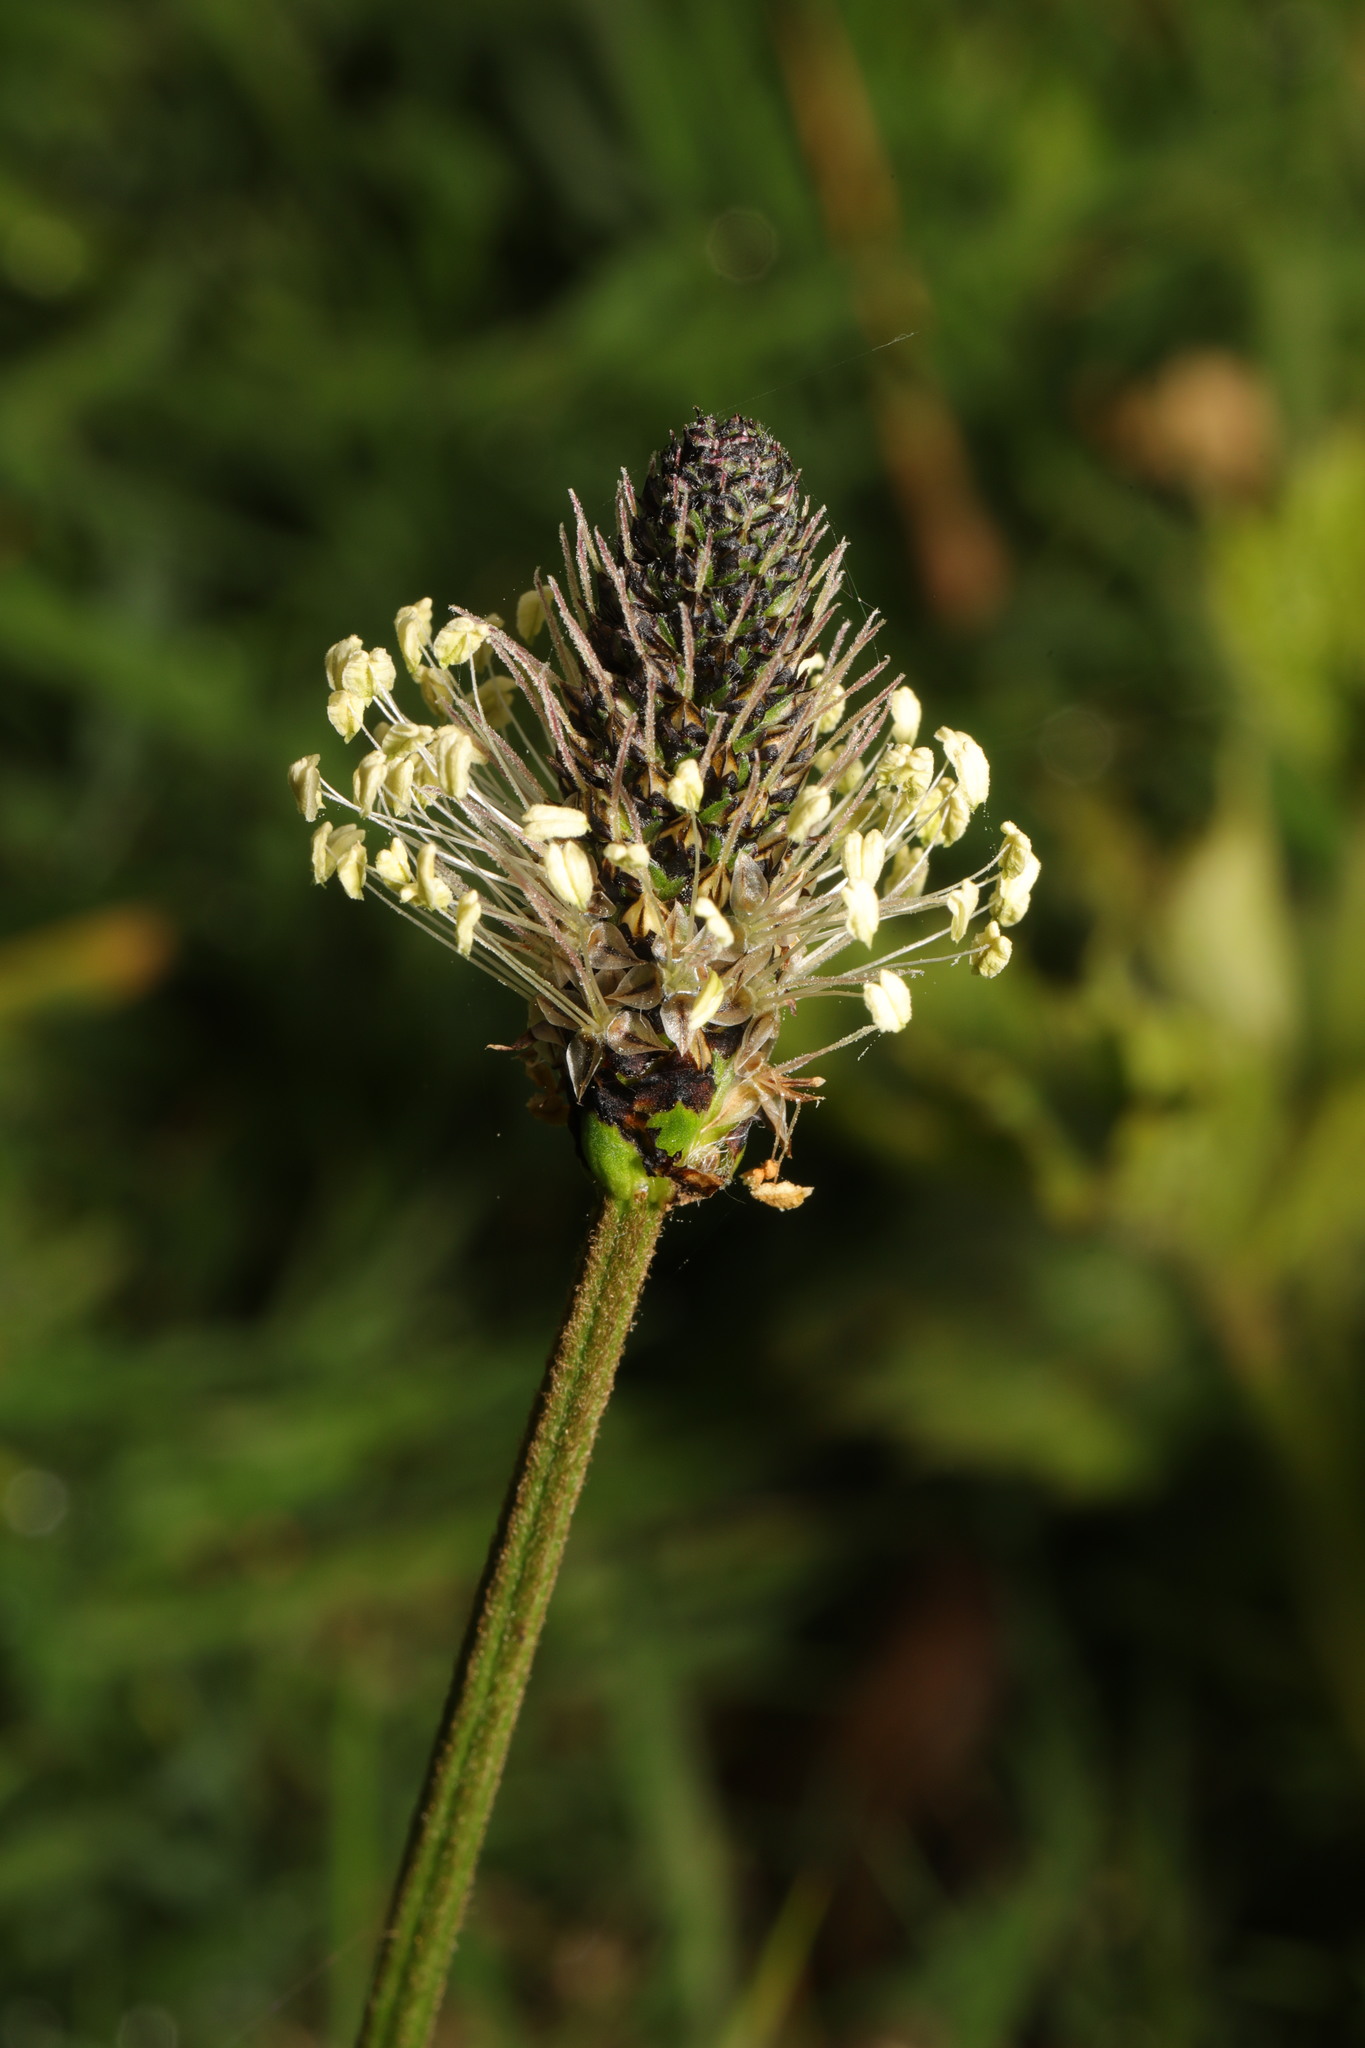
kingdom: Plantae
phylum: Tracheophyta
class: Magnoliopsida
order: Lamiales
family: Plantaginaceae
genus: Plantago
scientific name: Plantago lanceolata
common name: Ribwort plantain
